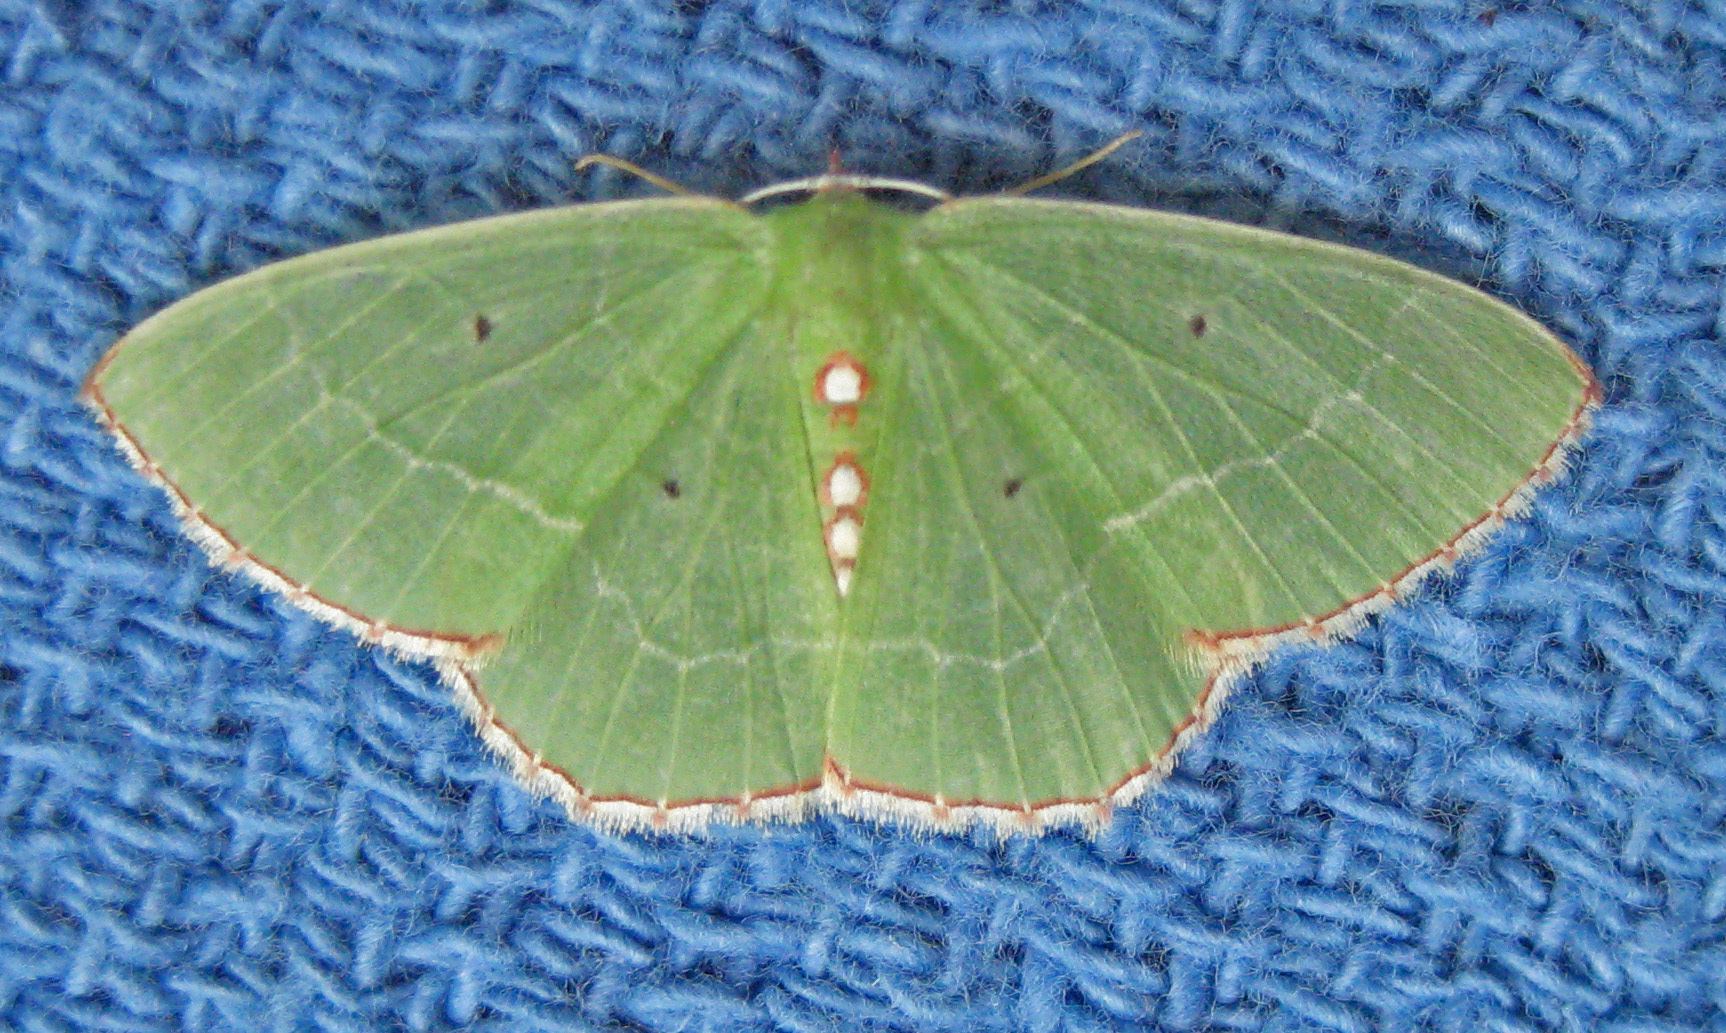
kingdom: Animalia
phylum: Arthropoda
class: Insecta
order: Lepidoptera
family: Geometridae
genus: Nemoria
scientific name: Nemoria bistriaria
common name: Red-fringed emerald
